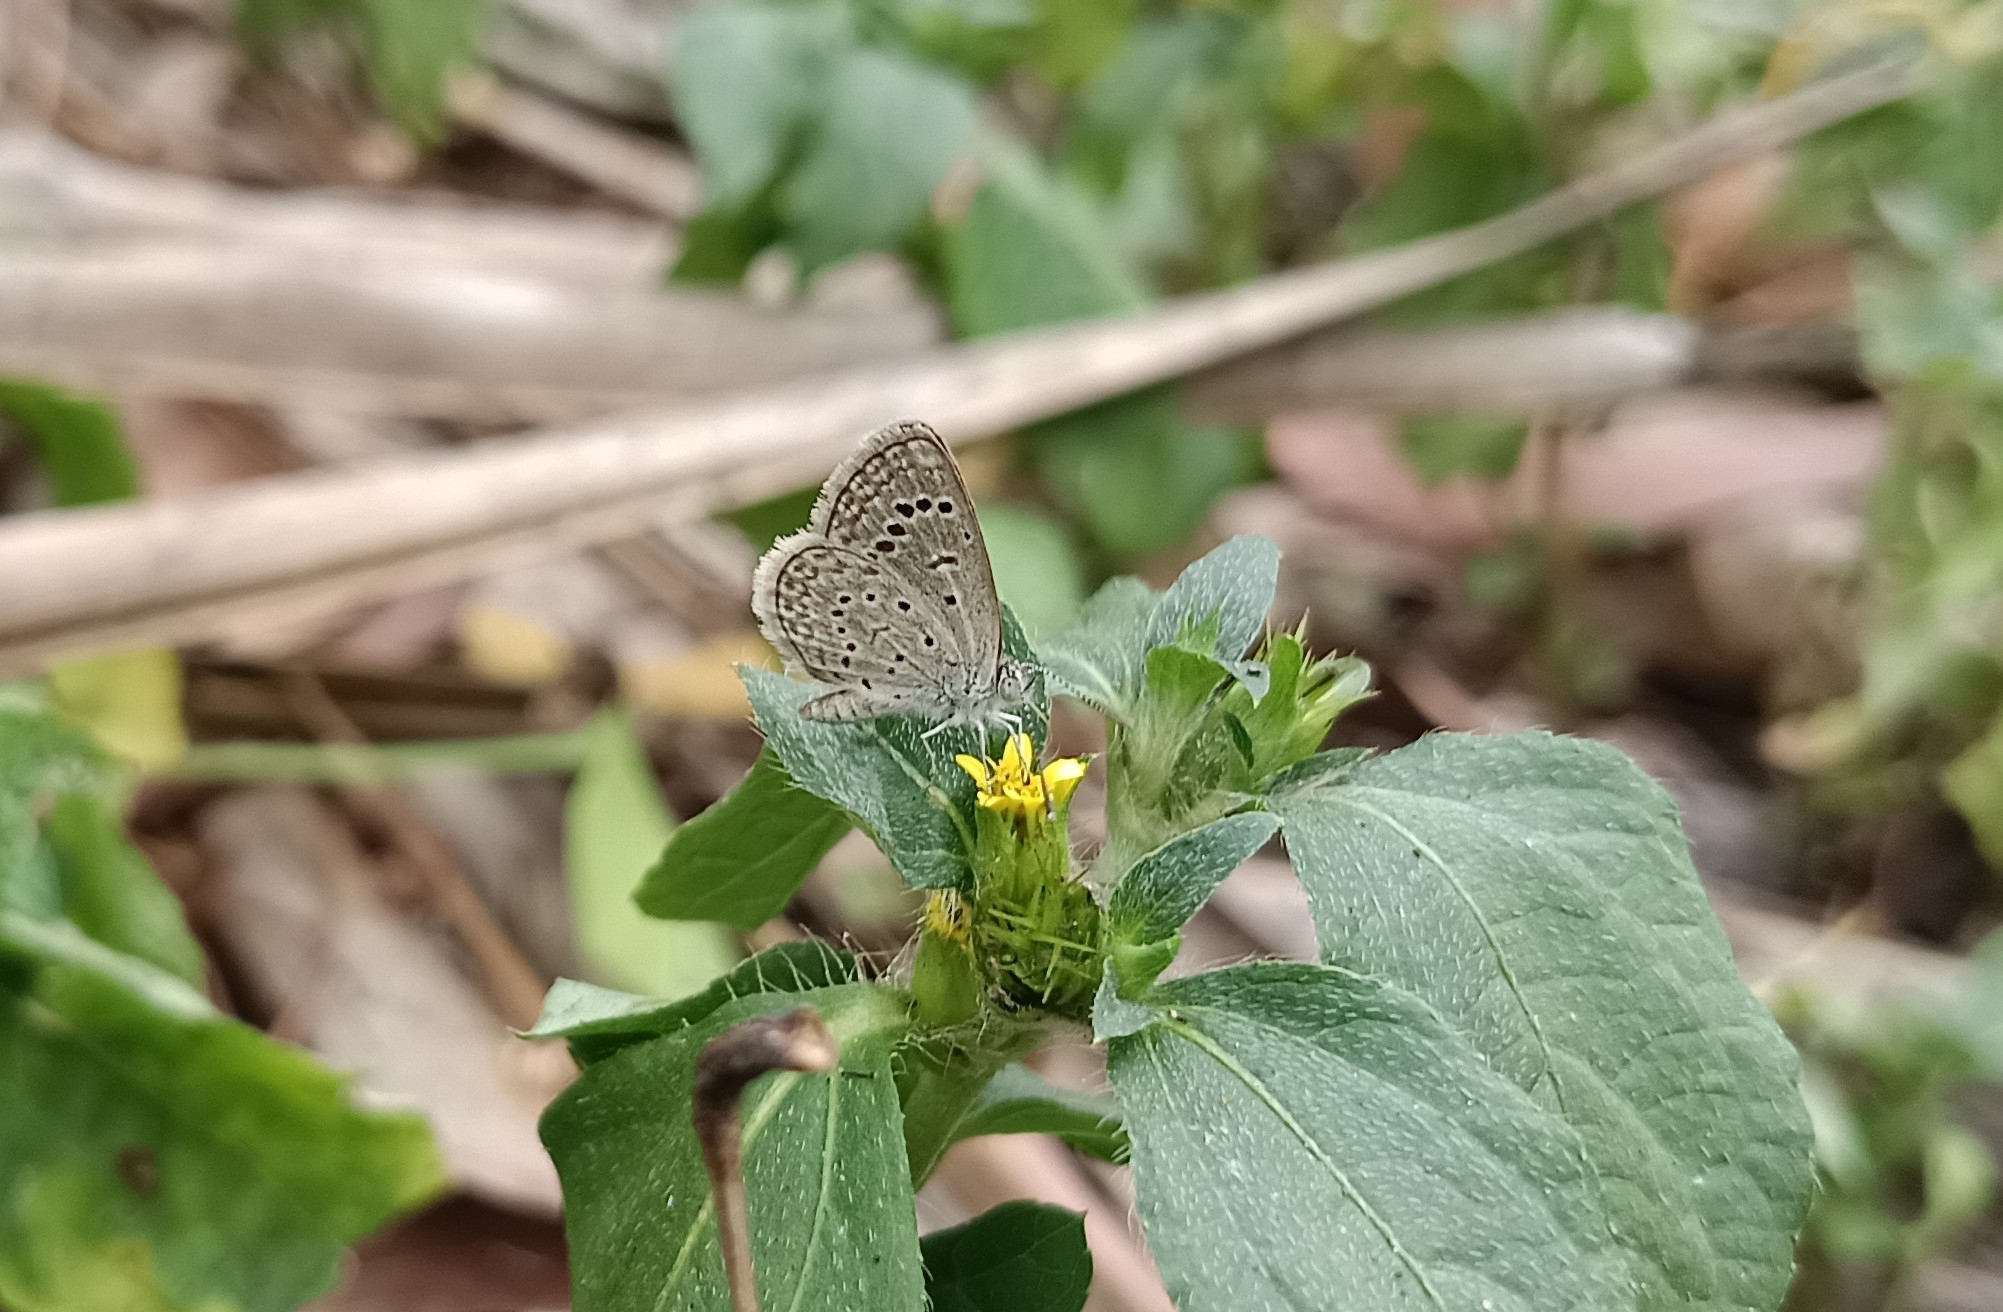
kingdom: Animalia
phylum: Arthropoda
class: Insecta
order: Lepidoptera
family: Lycaenidae
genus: Zizeeria
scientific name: Zizeeria karsandra
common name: Dark grass blue
